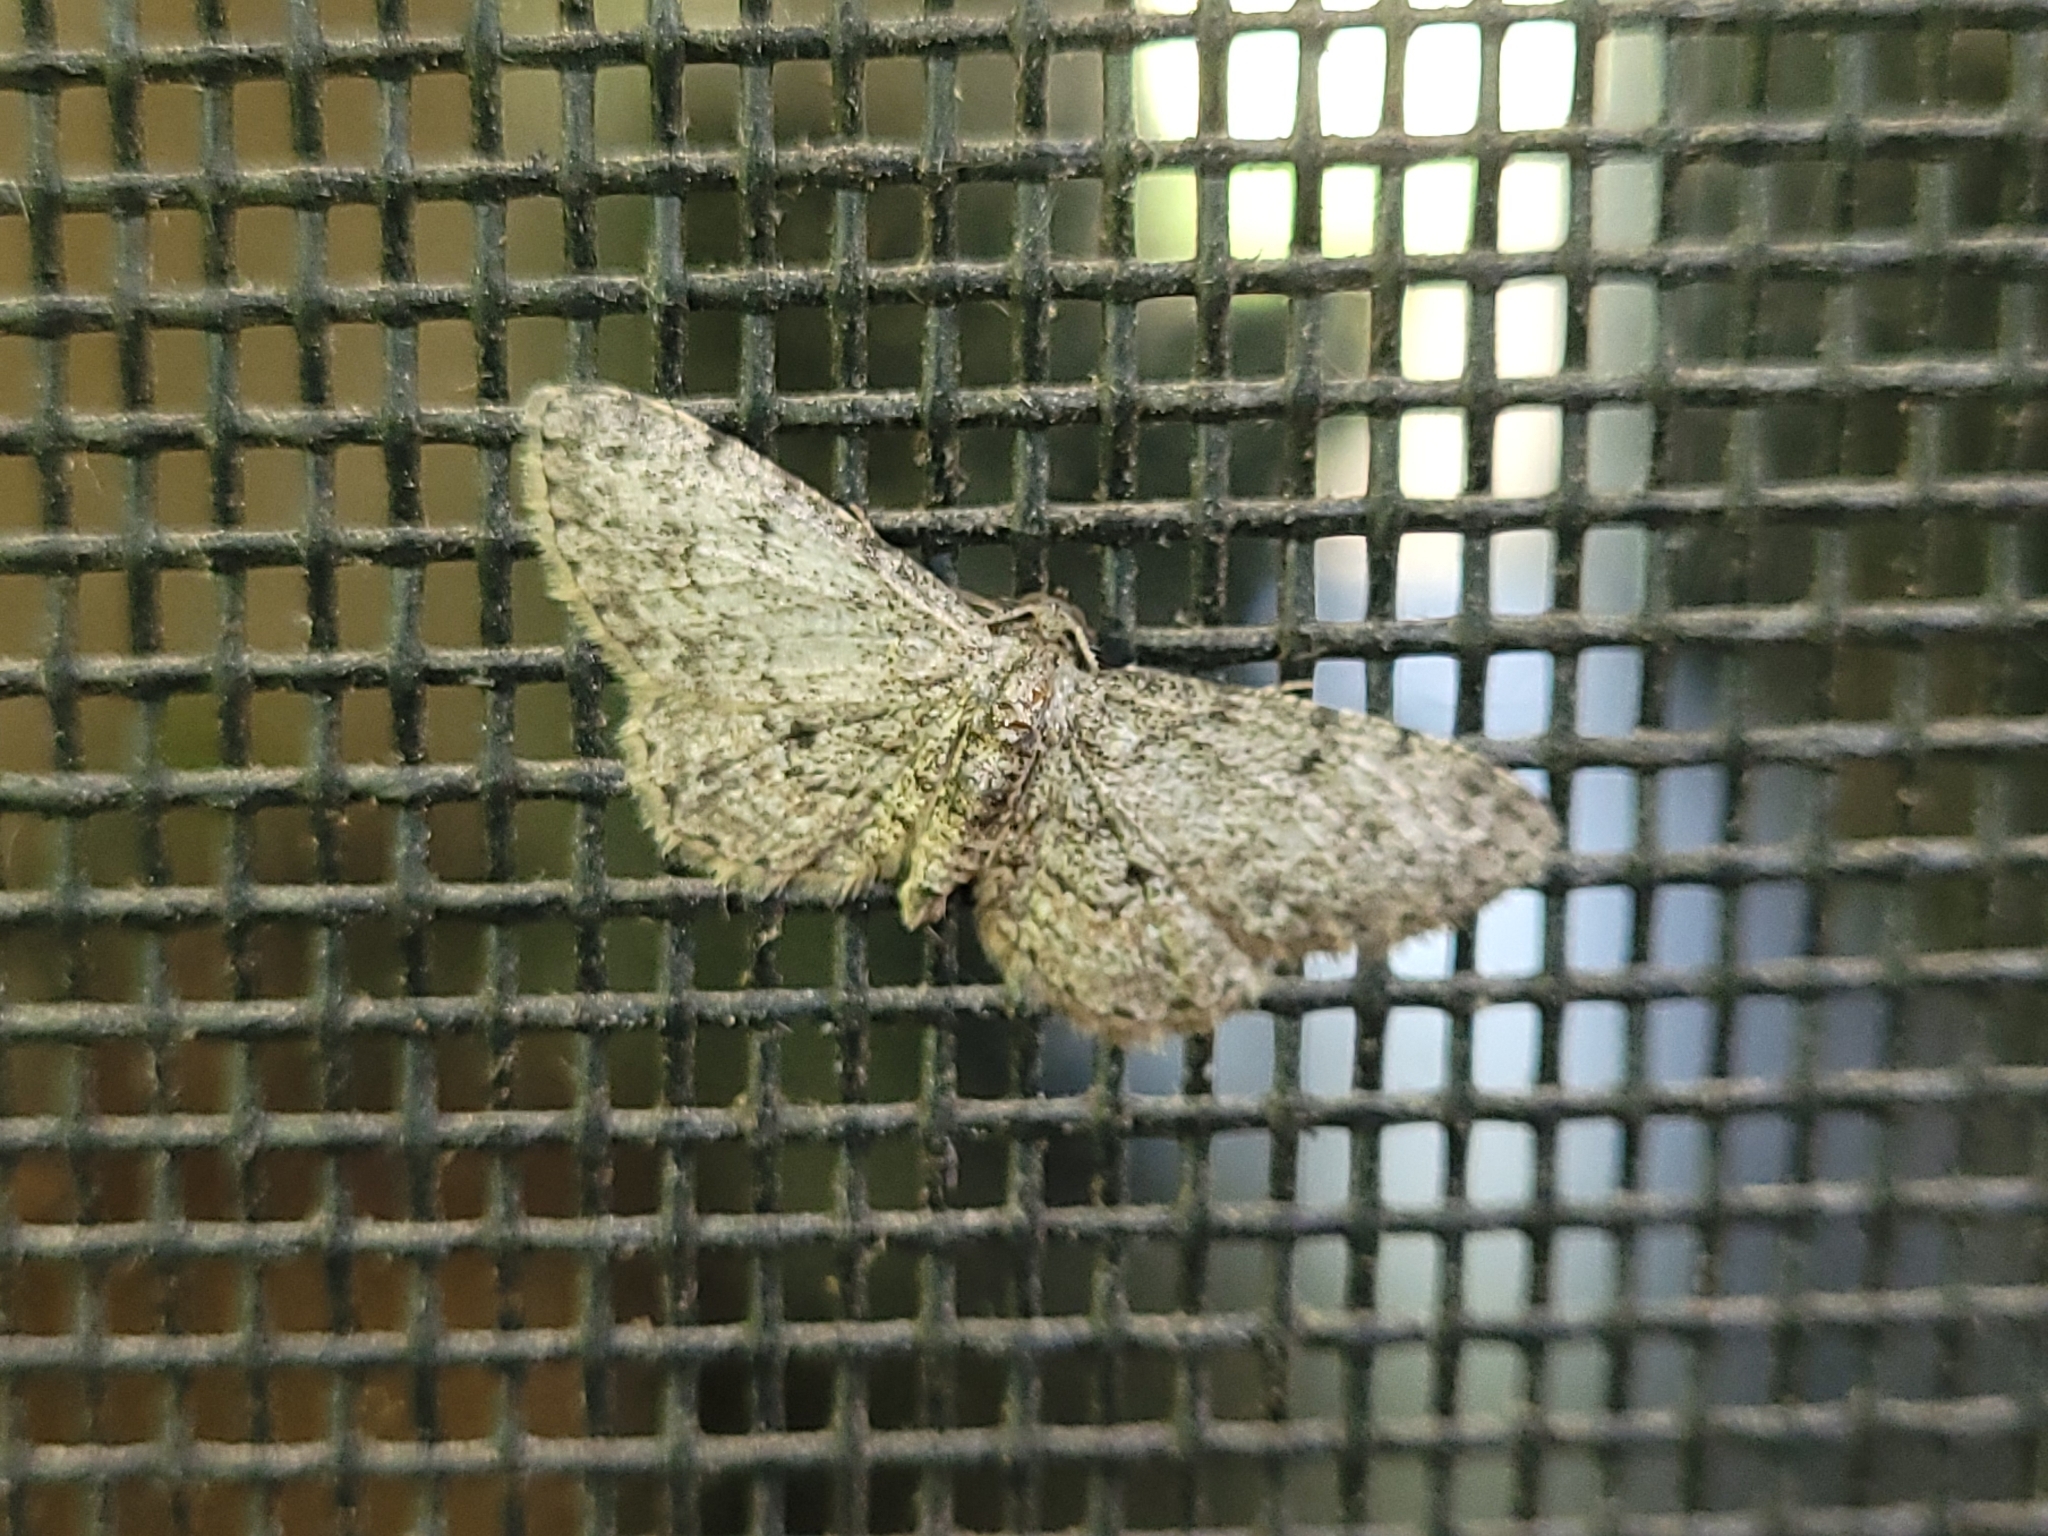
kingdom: Animalia
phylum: Arthropoda
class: Insecta
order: Lepidoptera
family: Geometridae
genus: Glenoides
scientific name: Glenoides texanaria
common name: Texas gray
